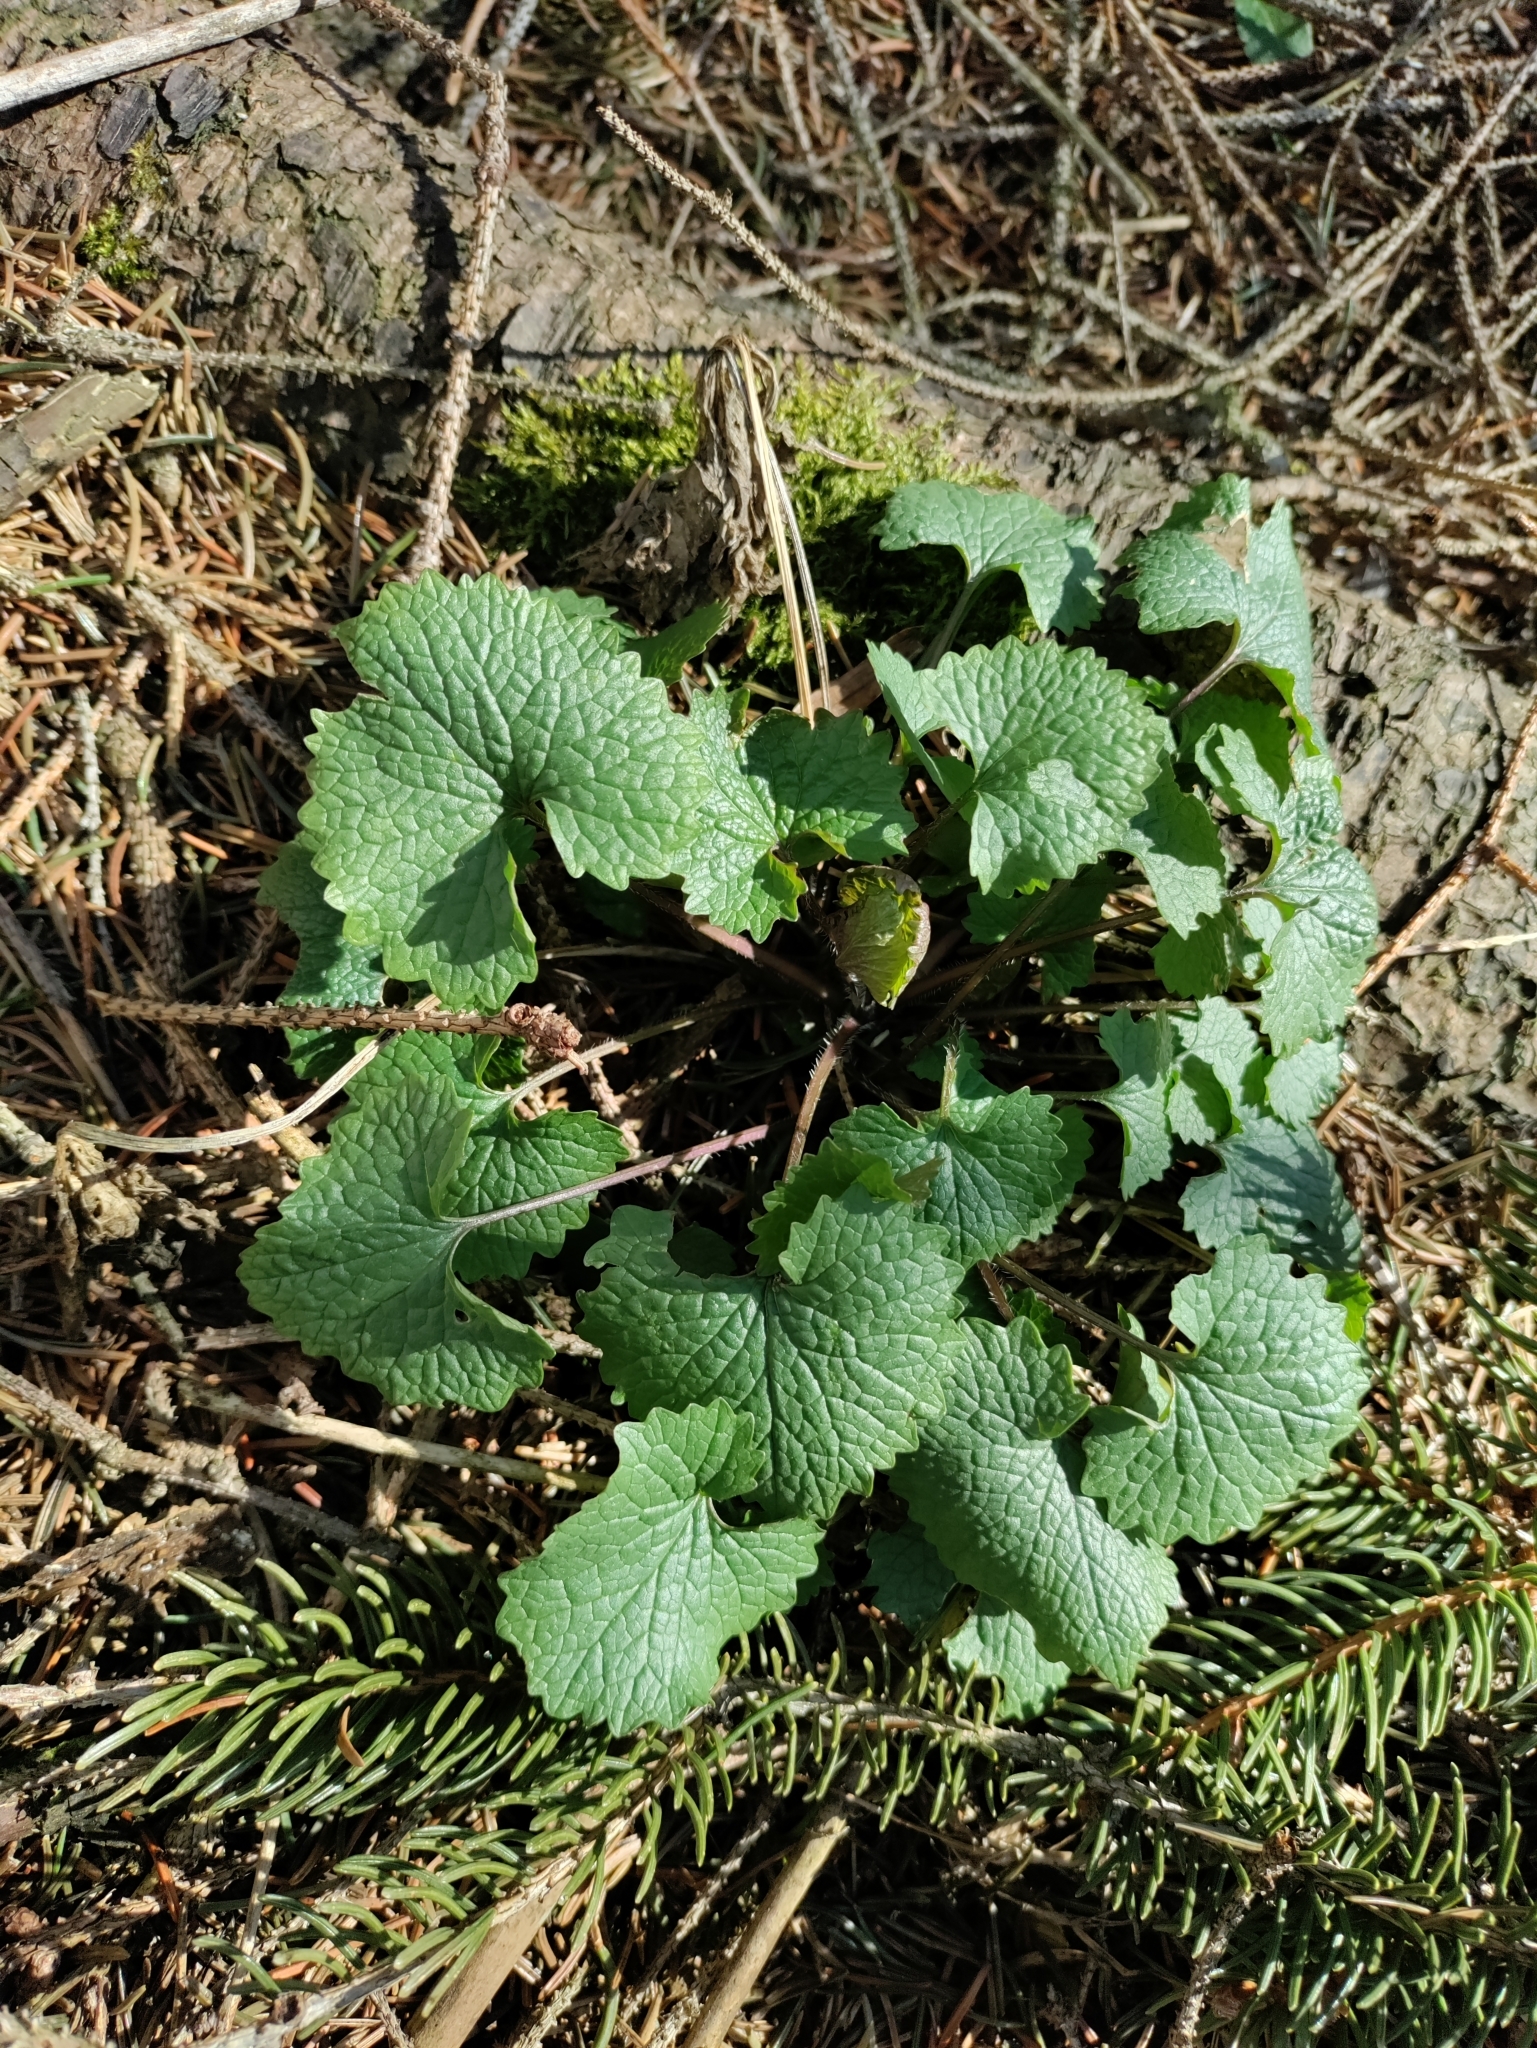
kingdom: Plantae
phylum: Tracheophyta
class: Magnoliopsida
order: Brassicales
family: Brassicaceae
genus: Alliaria
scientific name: Alliaria petiolata
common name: Garlic mustard
